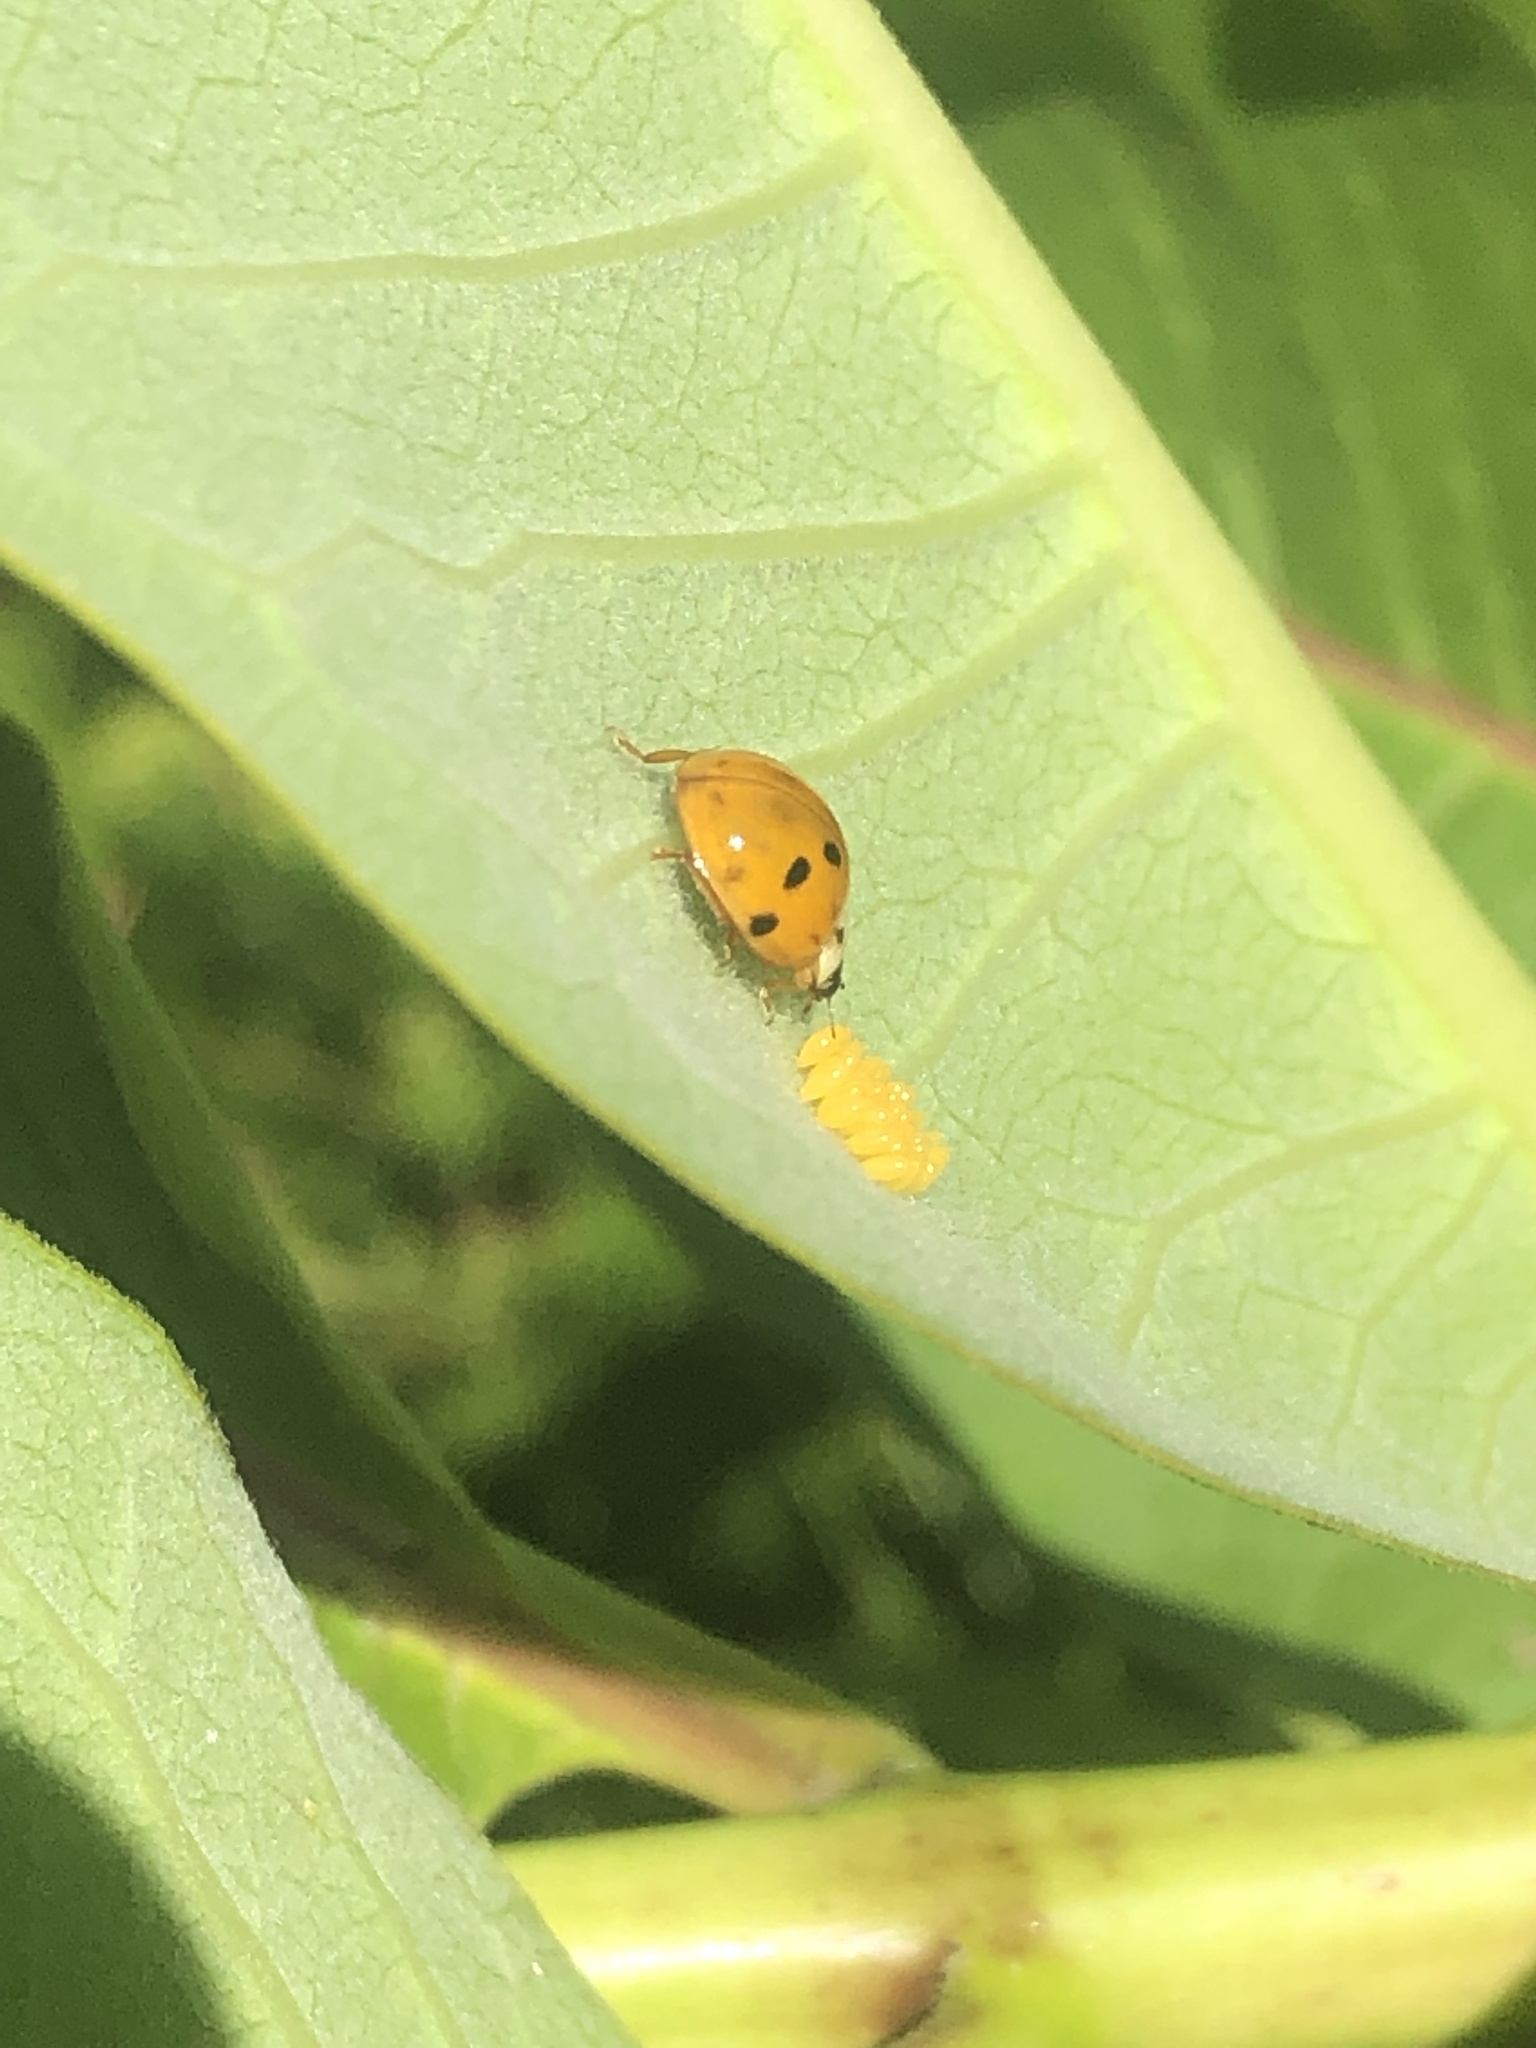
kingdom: Animalia
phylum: Arthropoda
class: Insecta
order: Coleoptera
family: Coccinellidae
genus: Harmonia
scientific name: Harmonia axyridis
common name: Harlequin ladybird
